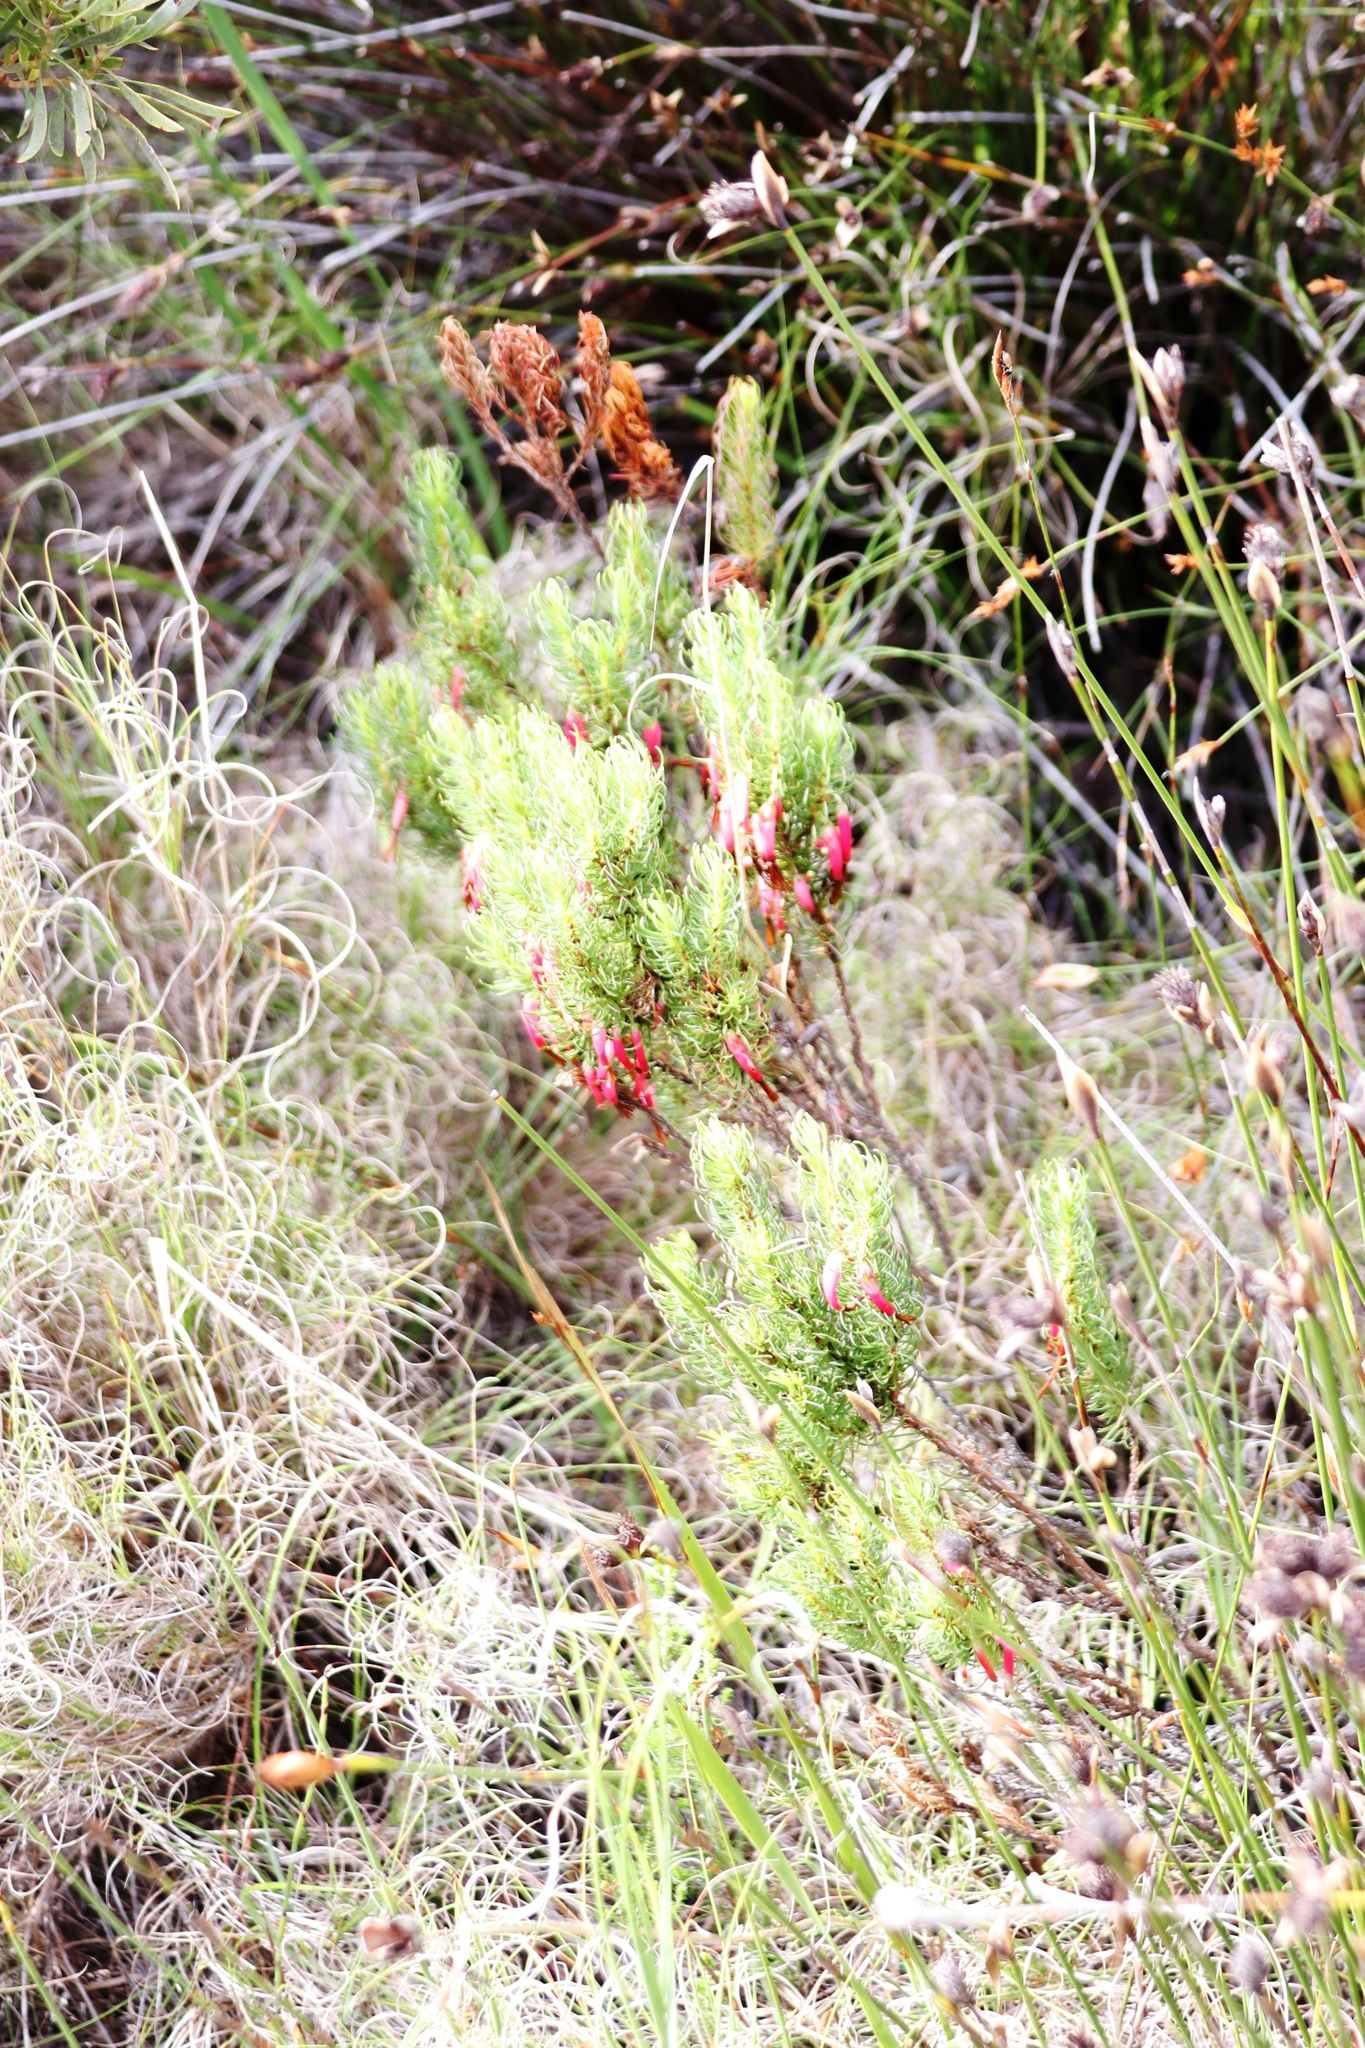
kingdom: Plantae
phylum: Tracheophyta
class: Magnoliopsida
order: Ericales
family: Ericaceae
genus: Erica
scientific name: Erica plukenetii
